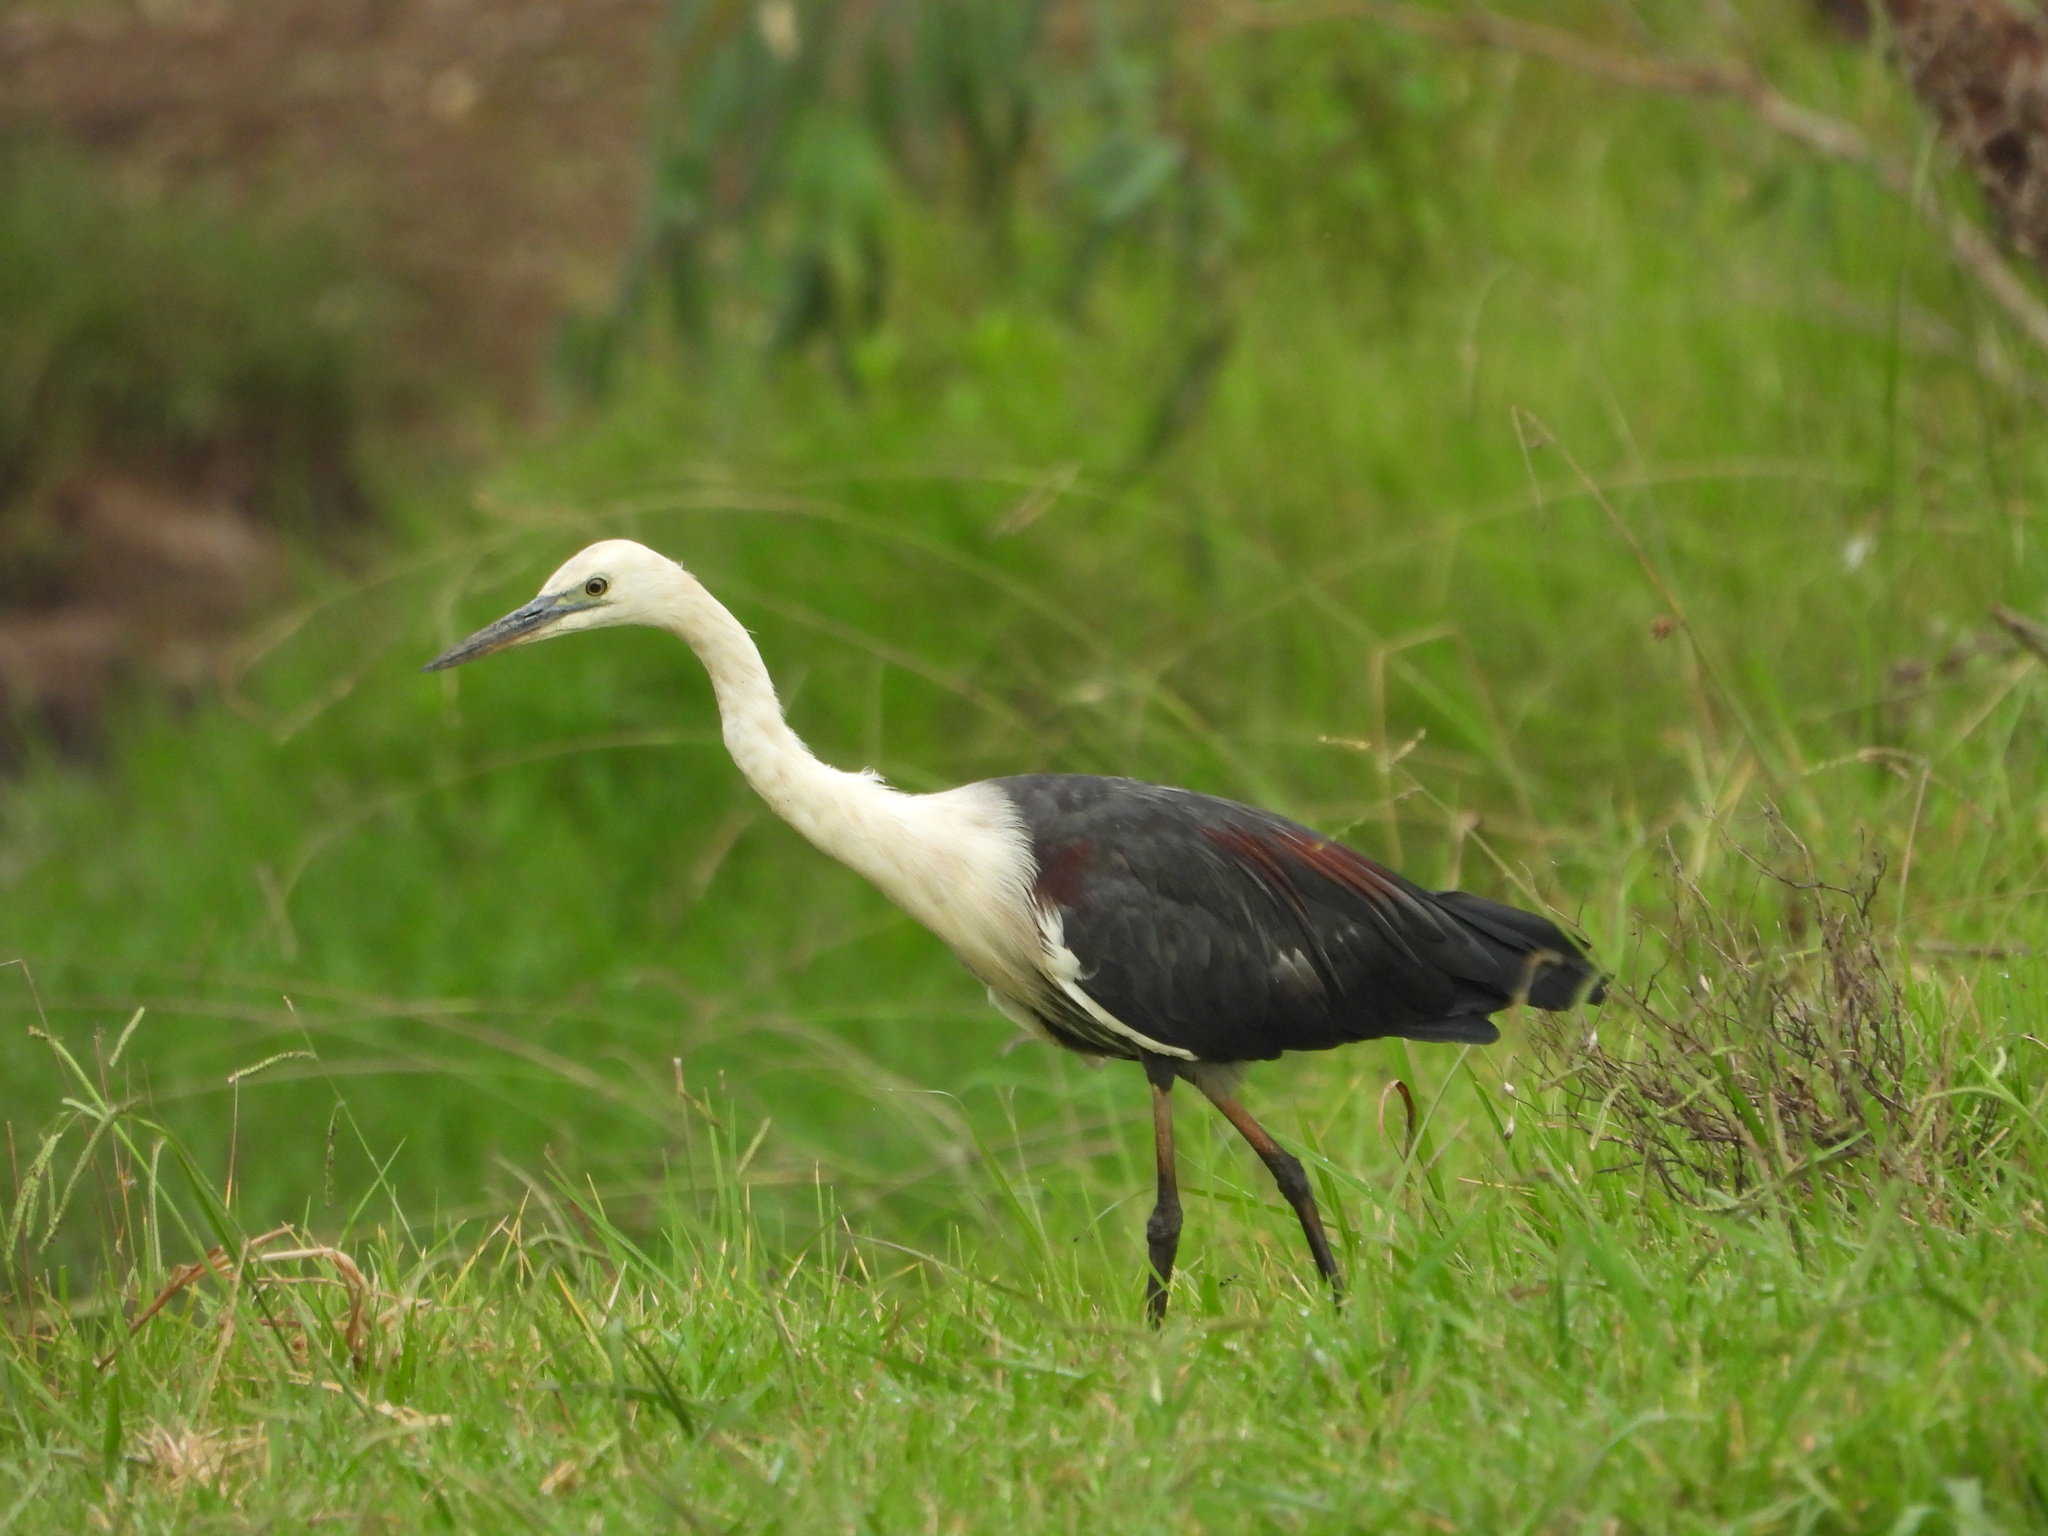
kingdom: Animalia
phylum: Chordata
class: Aves
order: Pelecaniformes
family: Ardeidae
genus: Ardea
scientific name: Ardea pacifica
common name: White-necked heron
